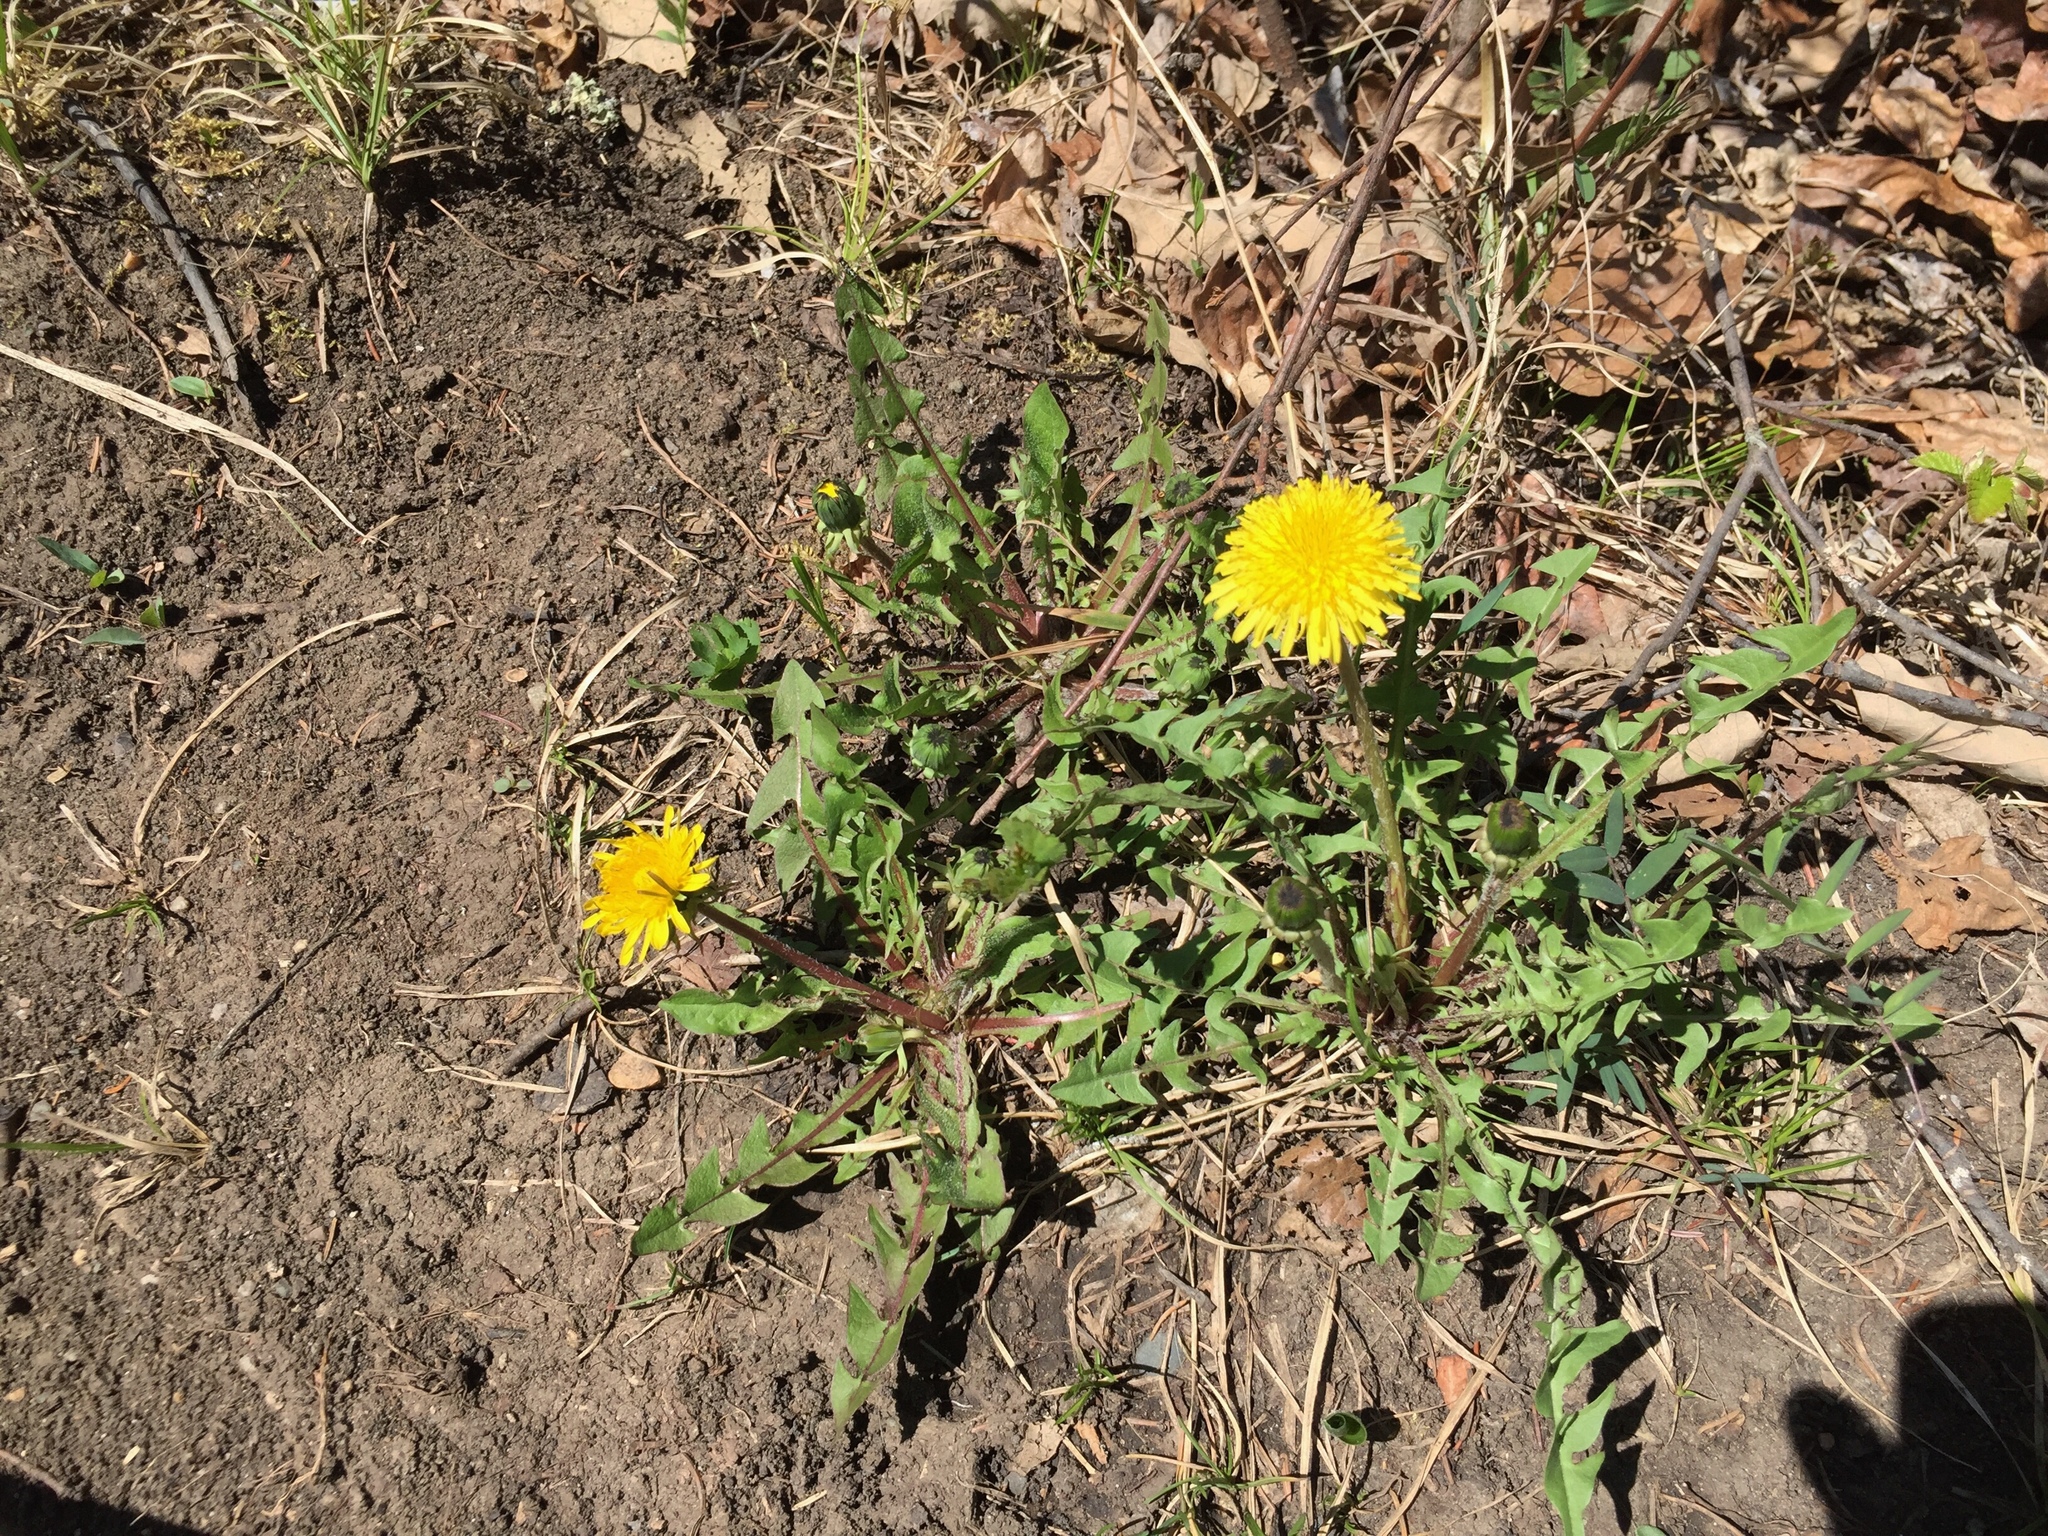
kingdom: Plantae
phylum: Tracheophyta
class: Magnoliopsida
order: Asterales
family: Asteraceae
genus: Taraxacum
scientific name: Taraxacum officinale
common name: Common dandelion
